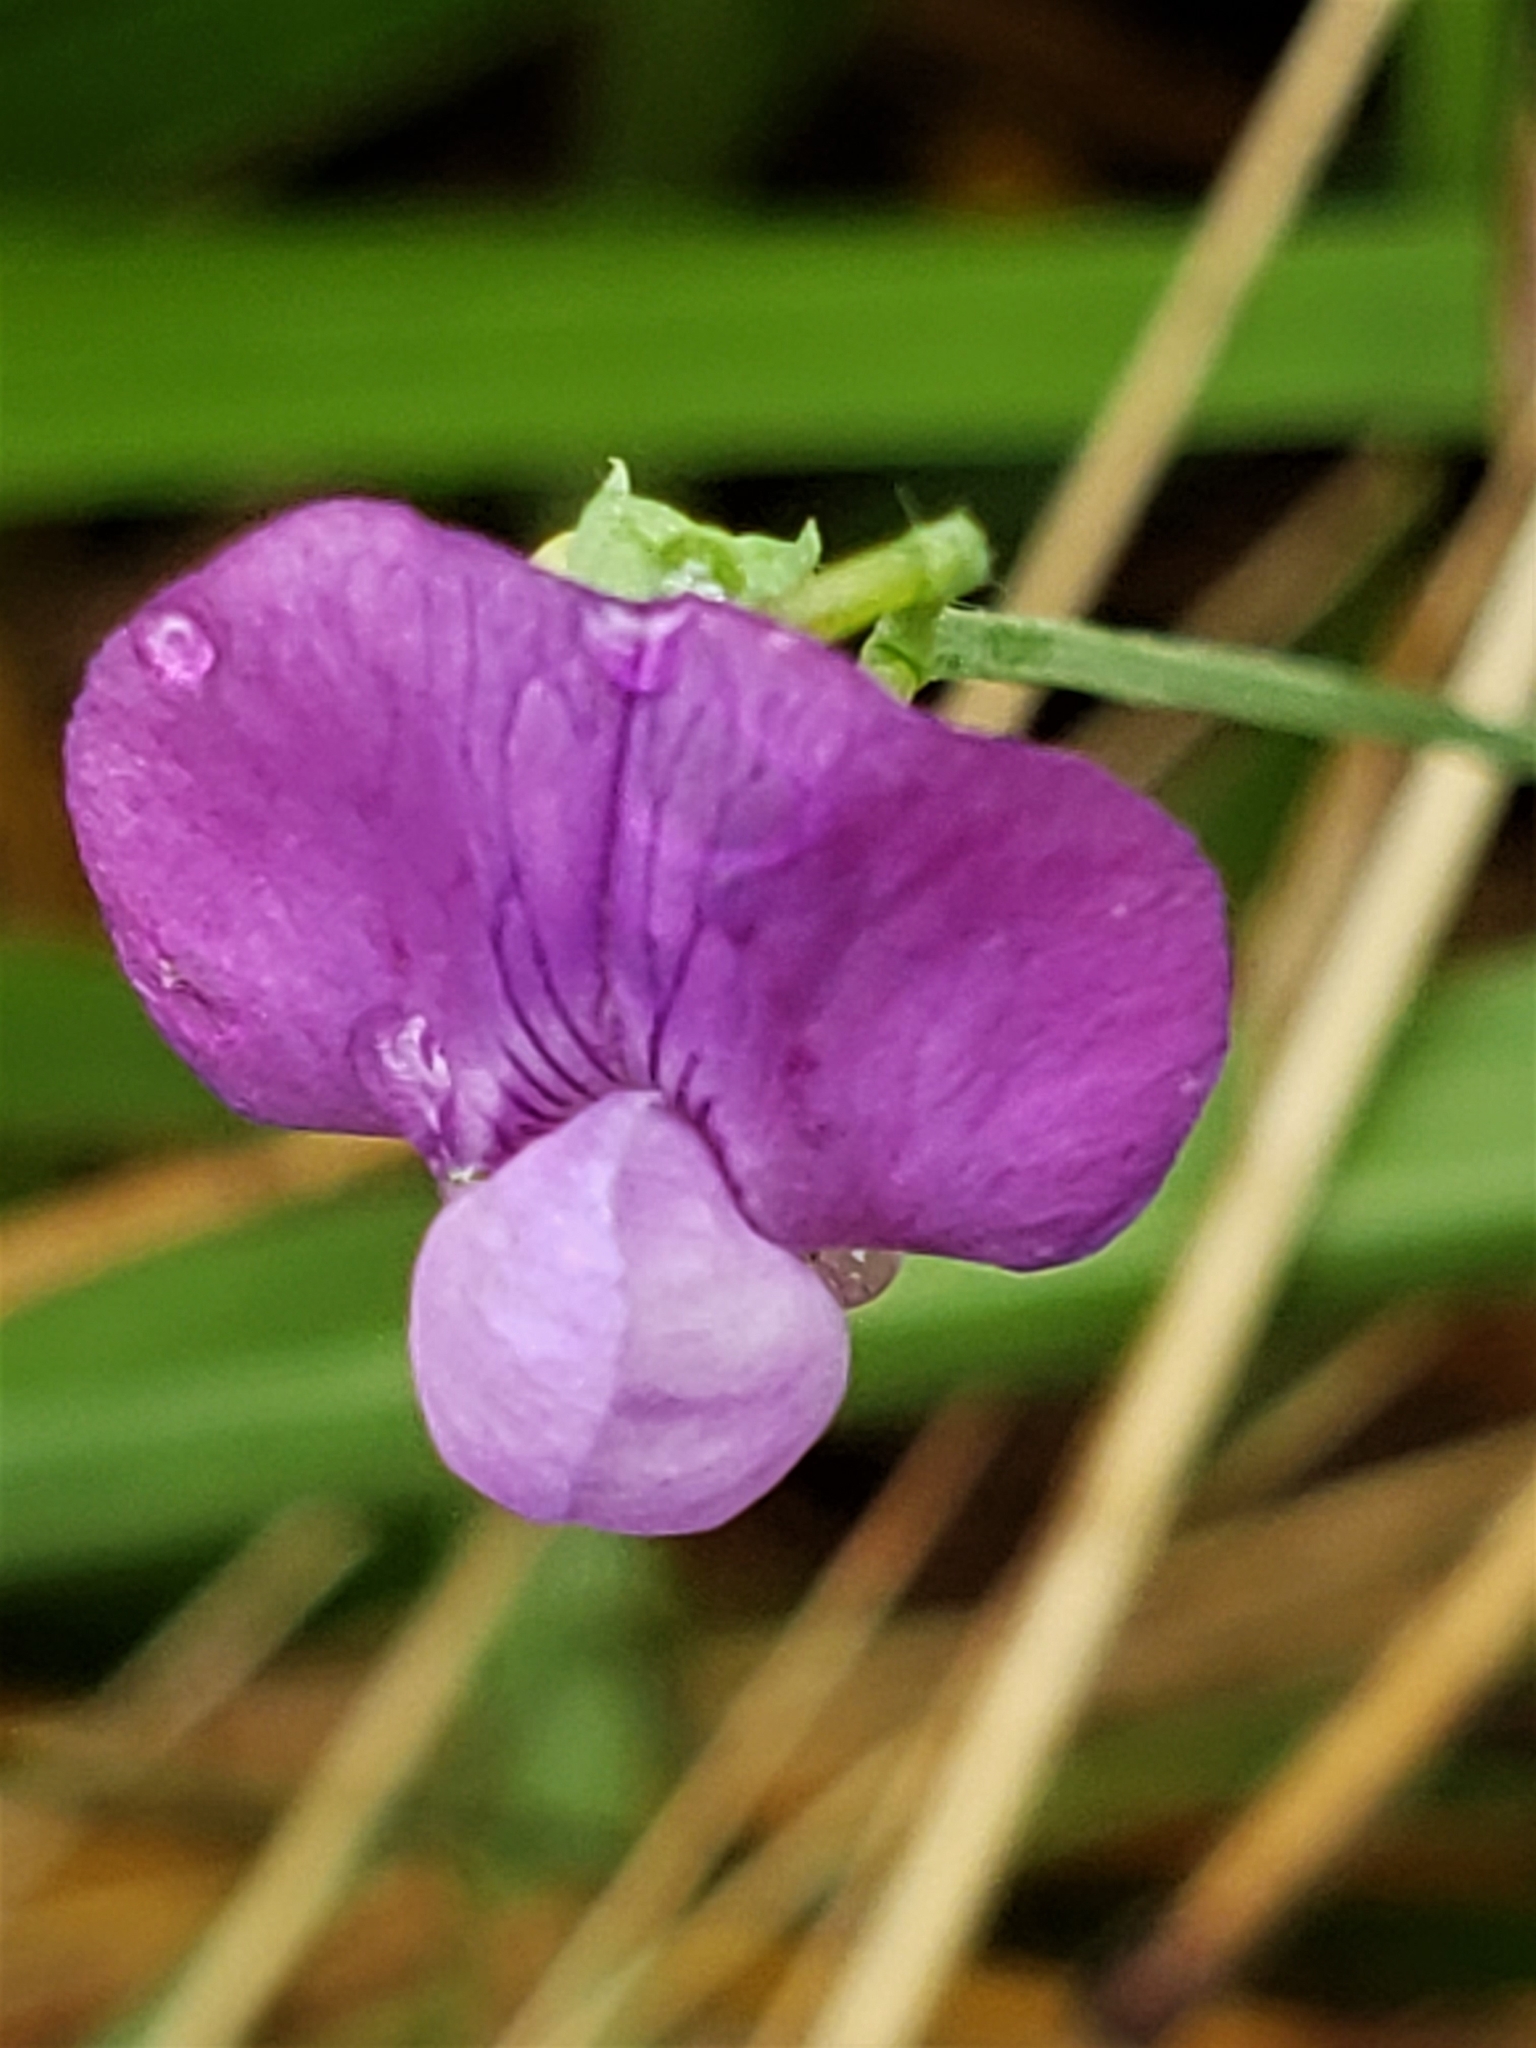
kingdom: Plantae
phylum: Tracheophyta
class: Magnoliopsida
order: Fabales
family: Fabaceae
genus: Lathyrus
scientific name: Lathyrus hirsutus
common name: Hairy vetchling
